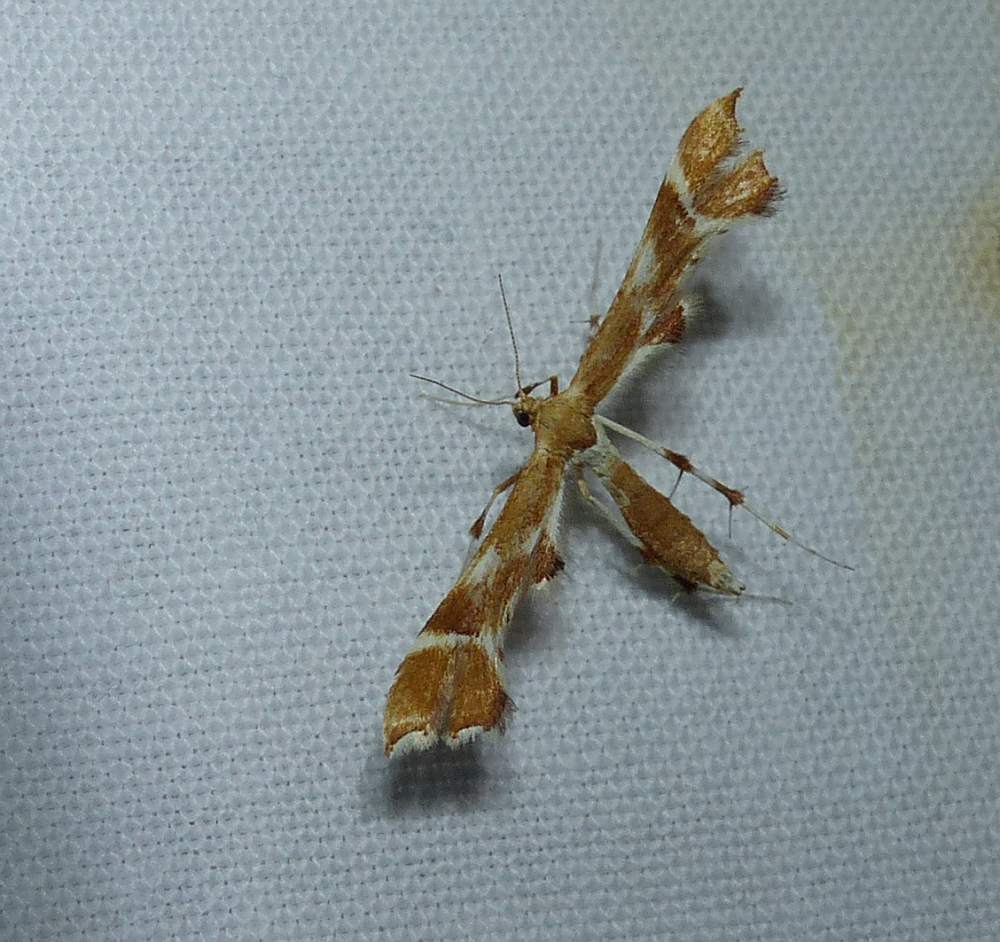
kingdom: Animalia
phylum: Arthropoda
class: Insecta
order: Lepidoptera
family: Pterophoridae
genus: Cnaemidophorus
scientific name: Cnaemidophorus rhododactyla
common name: Rose plume
